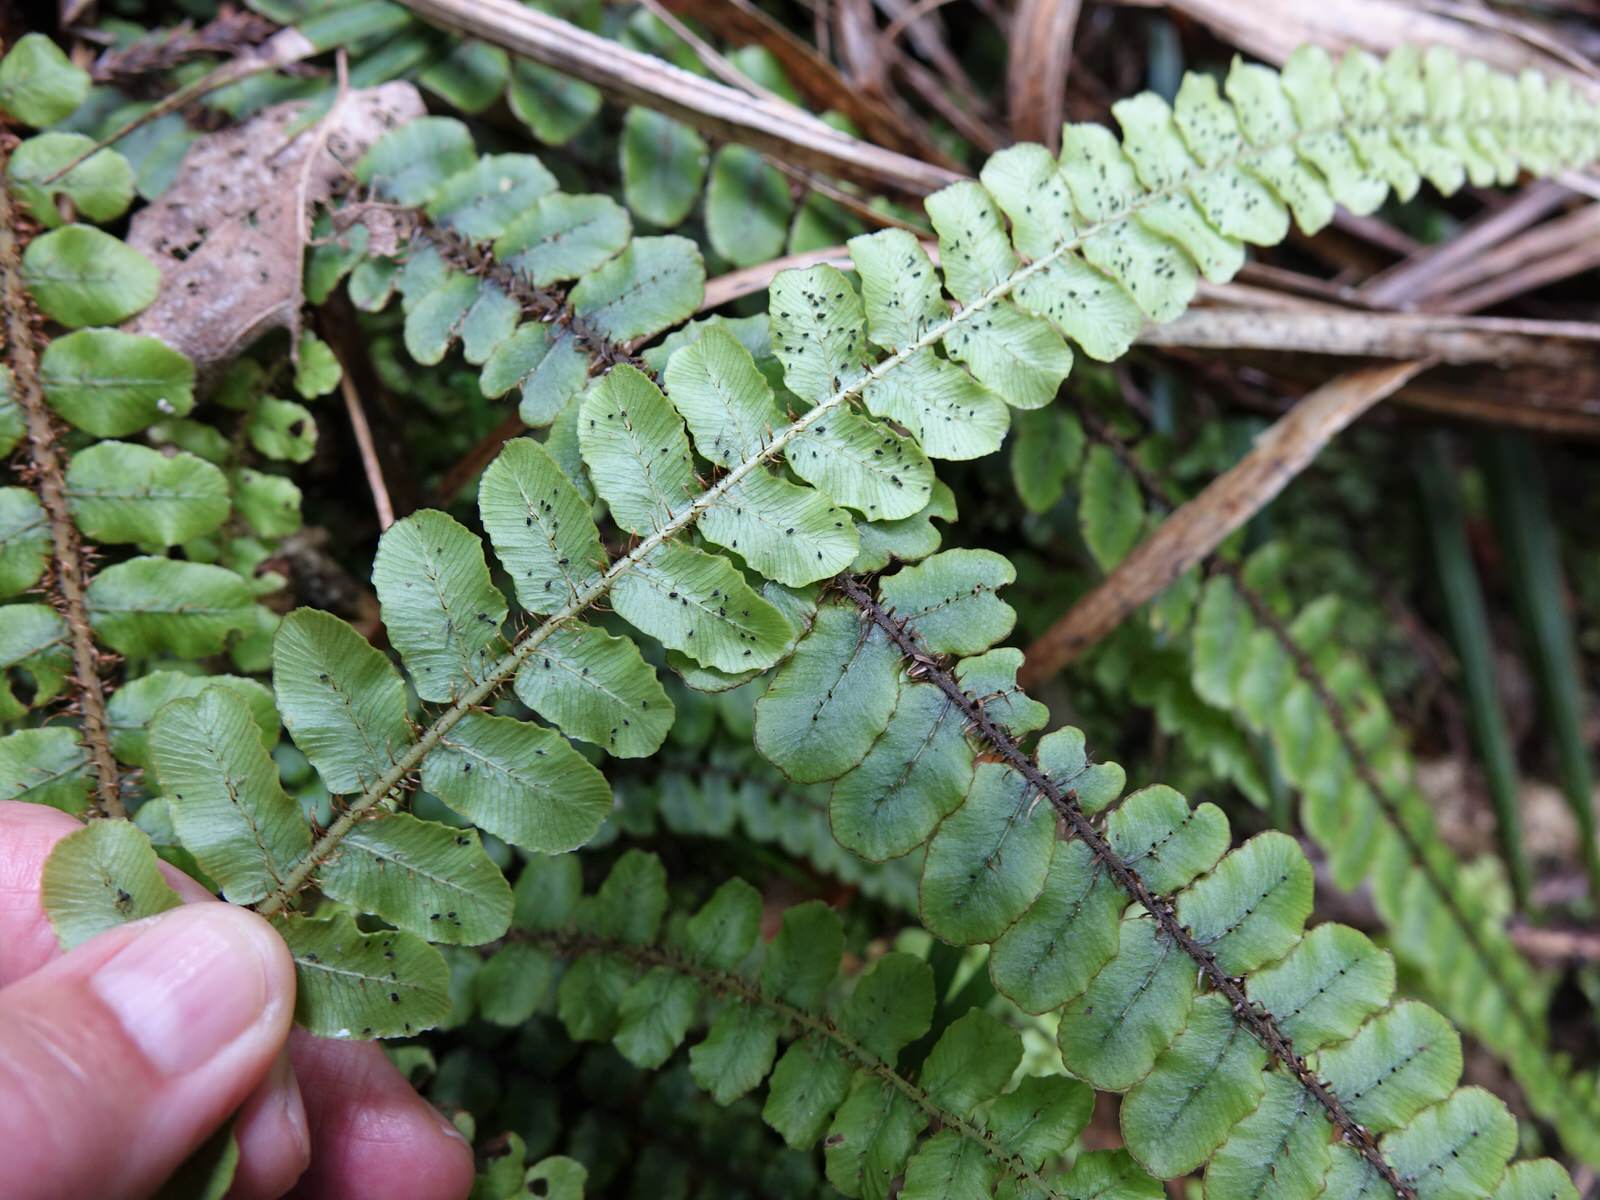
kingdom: Plantae
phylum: Tracheophyta
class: Polypodiopsida
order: Polypodiales
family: Blechnaceae
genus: Cranfillia
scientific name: Cranfillia fluviatilis
